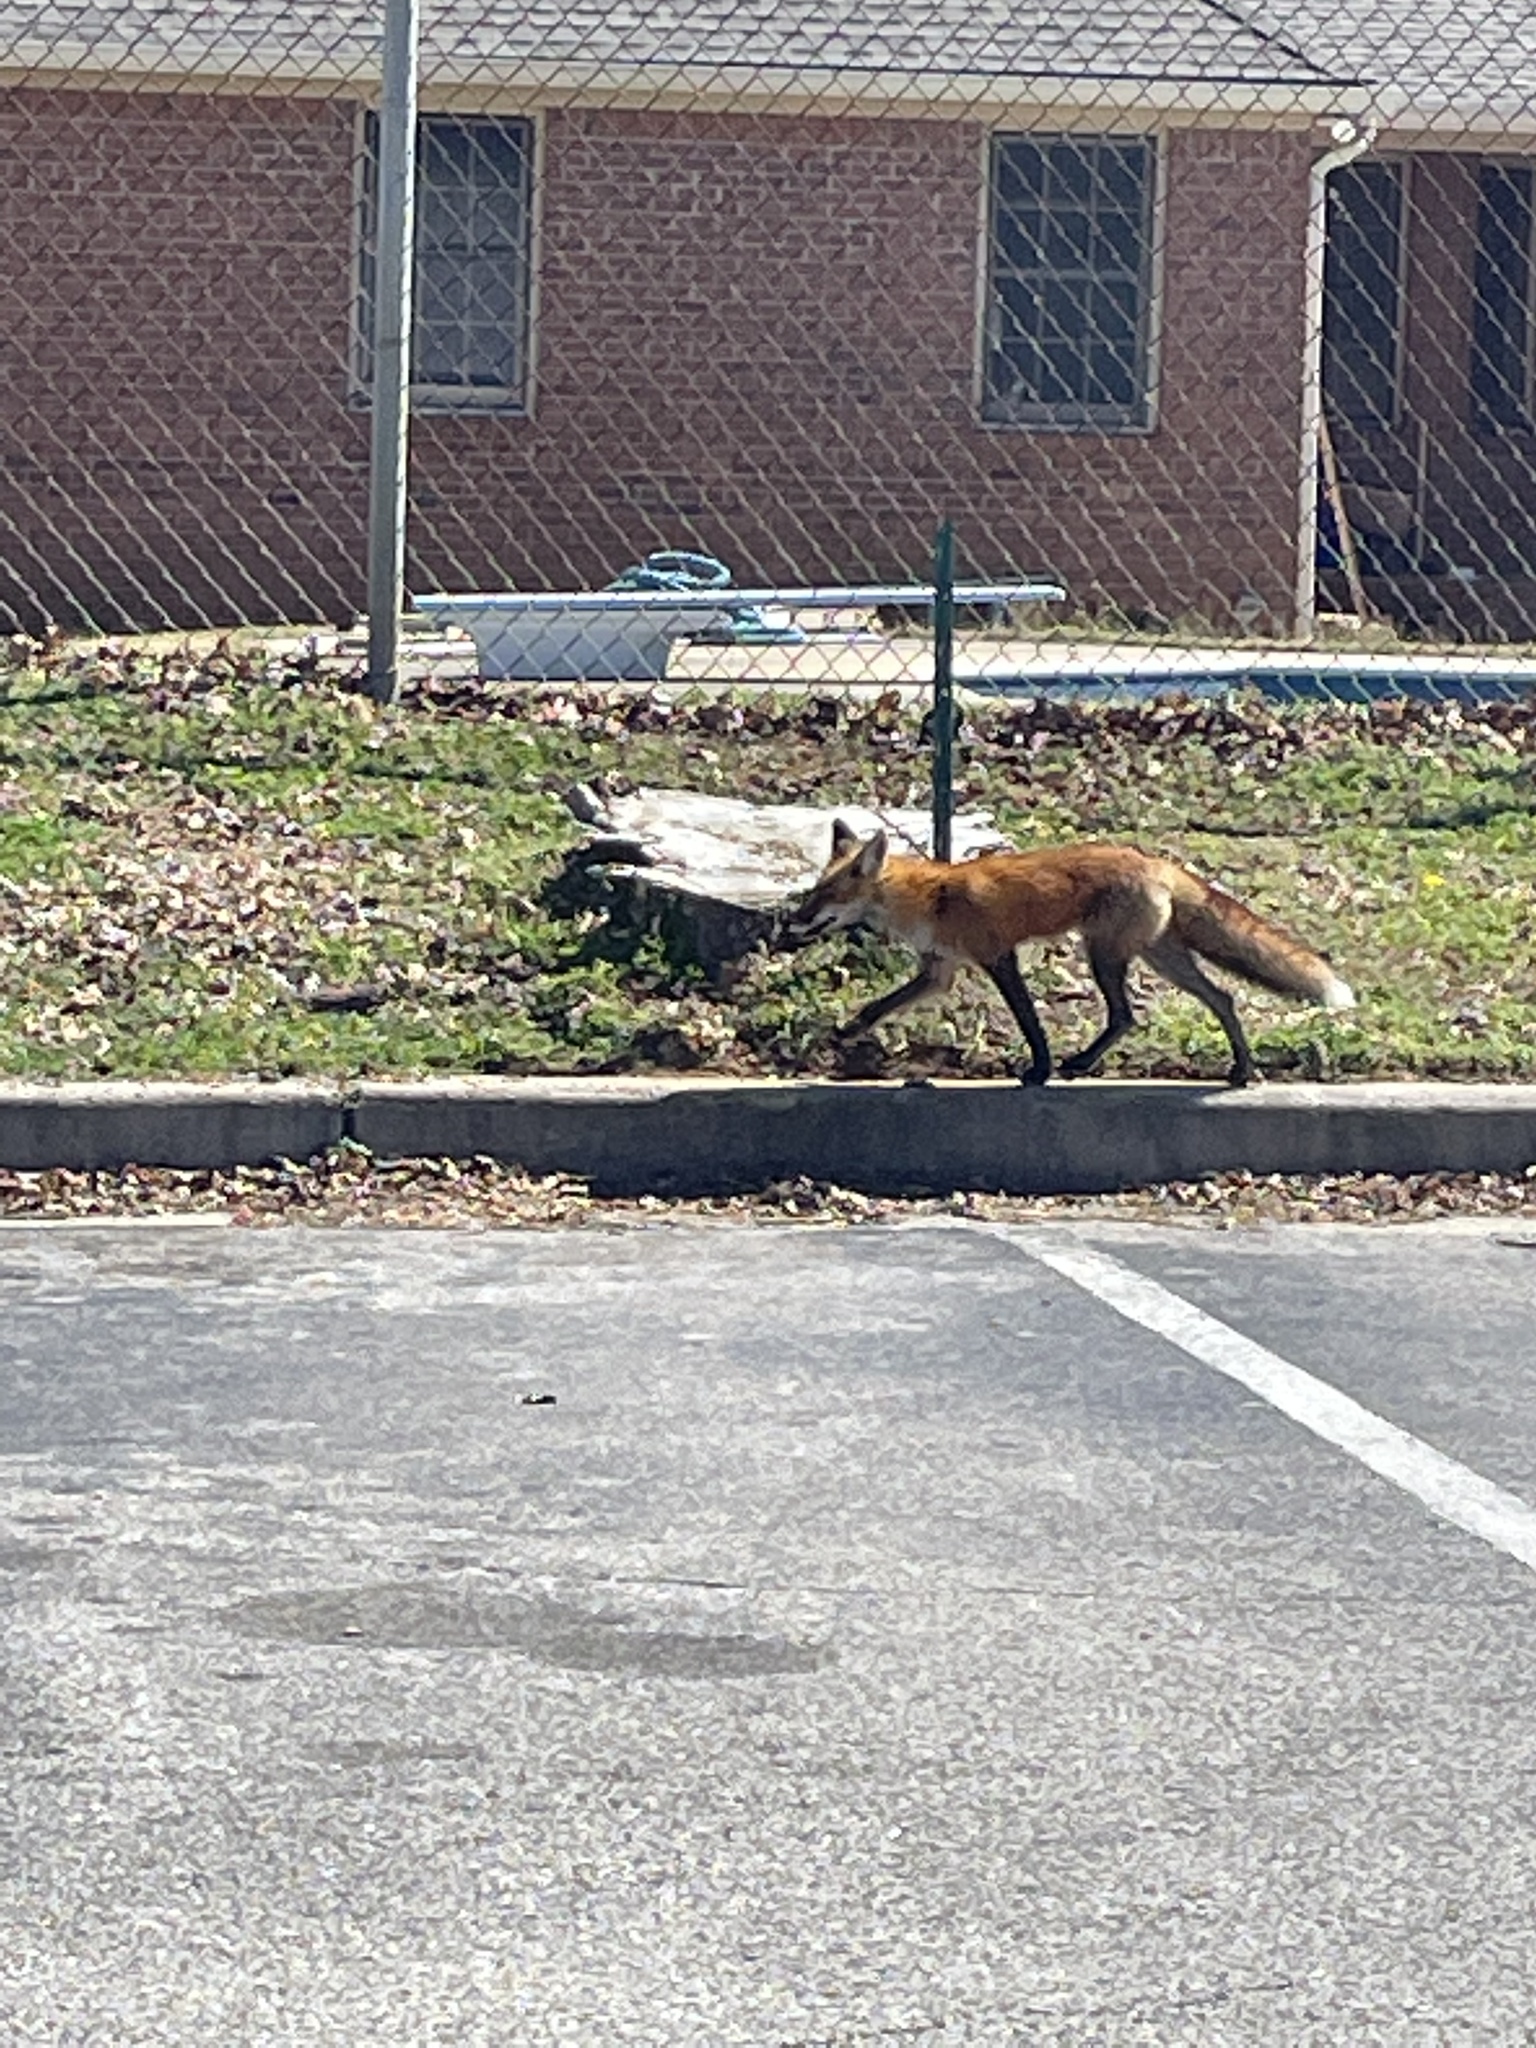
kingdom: Animalia
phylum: Chordata
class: Mammalia
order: Carnivora
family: Canidae
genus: Vulpes
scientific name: Vulpes vulpes
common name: Red fox
